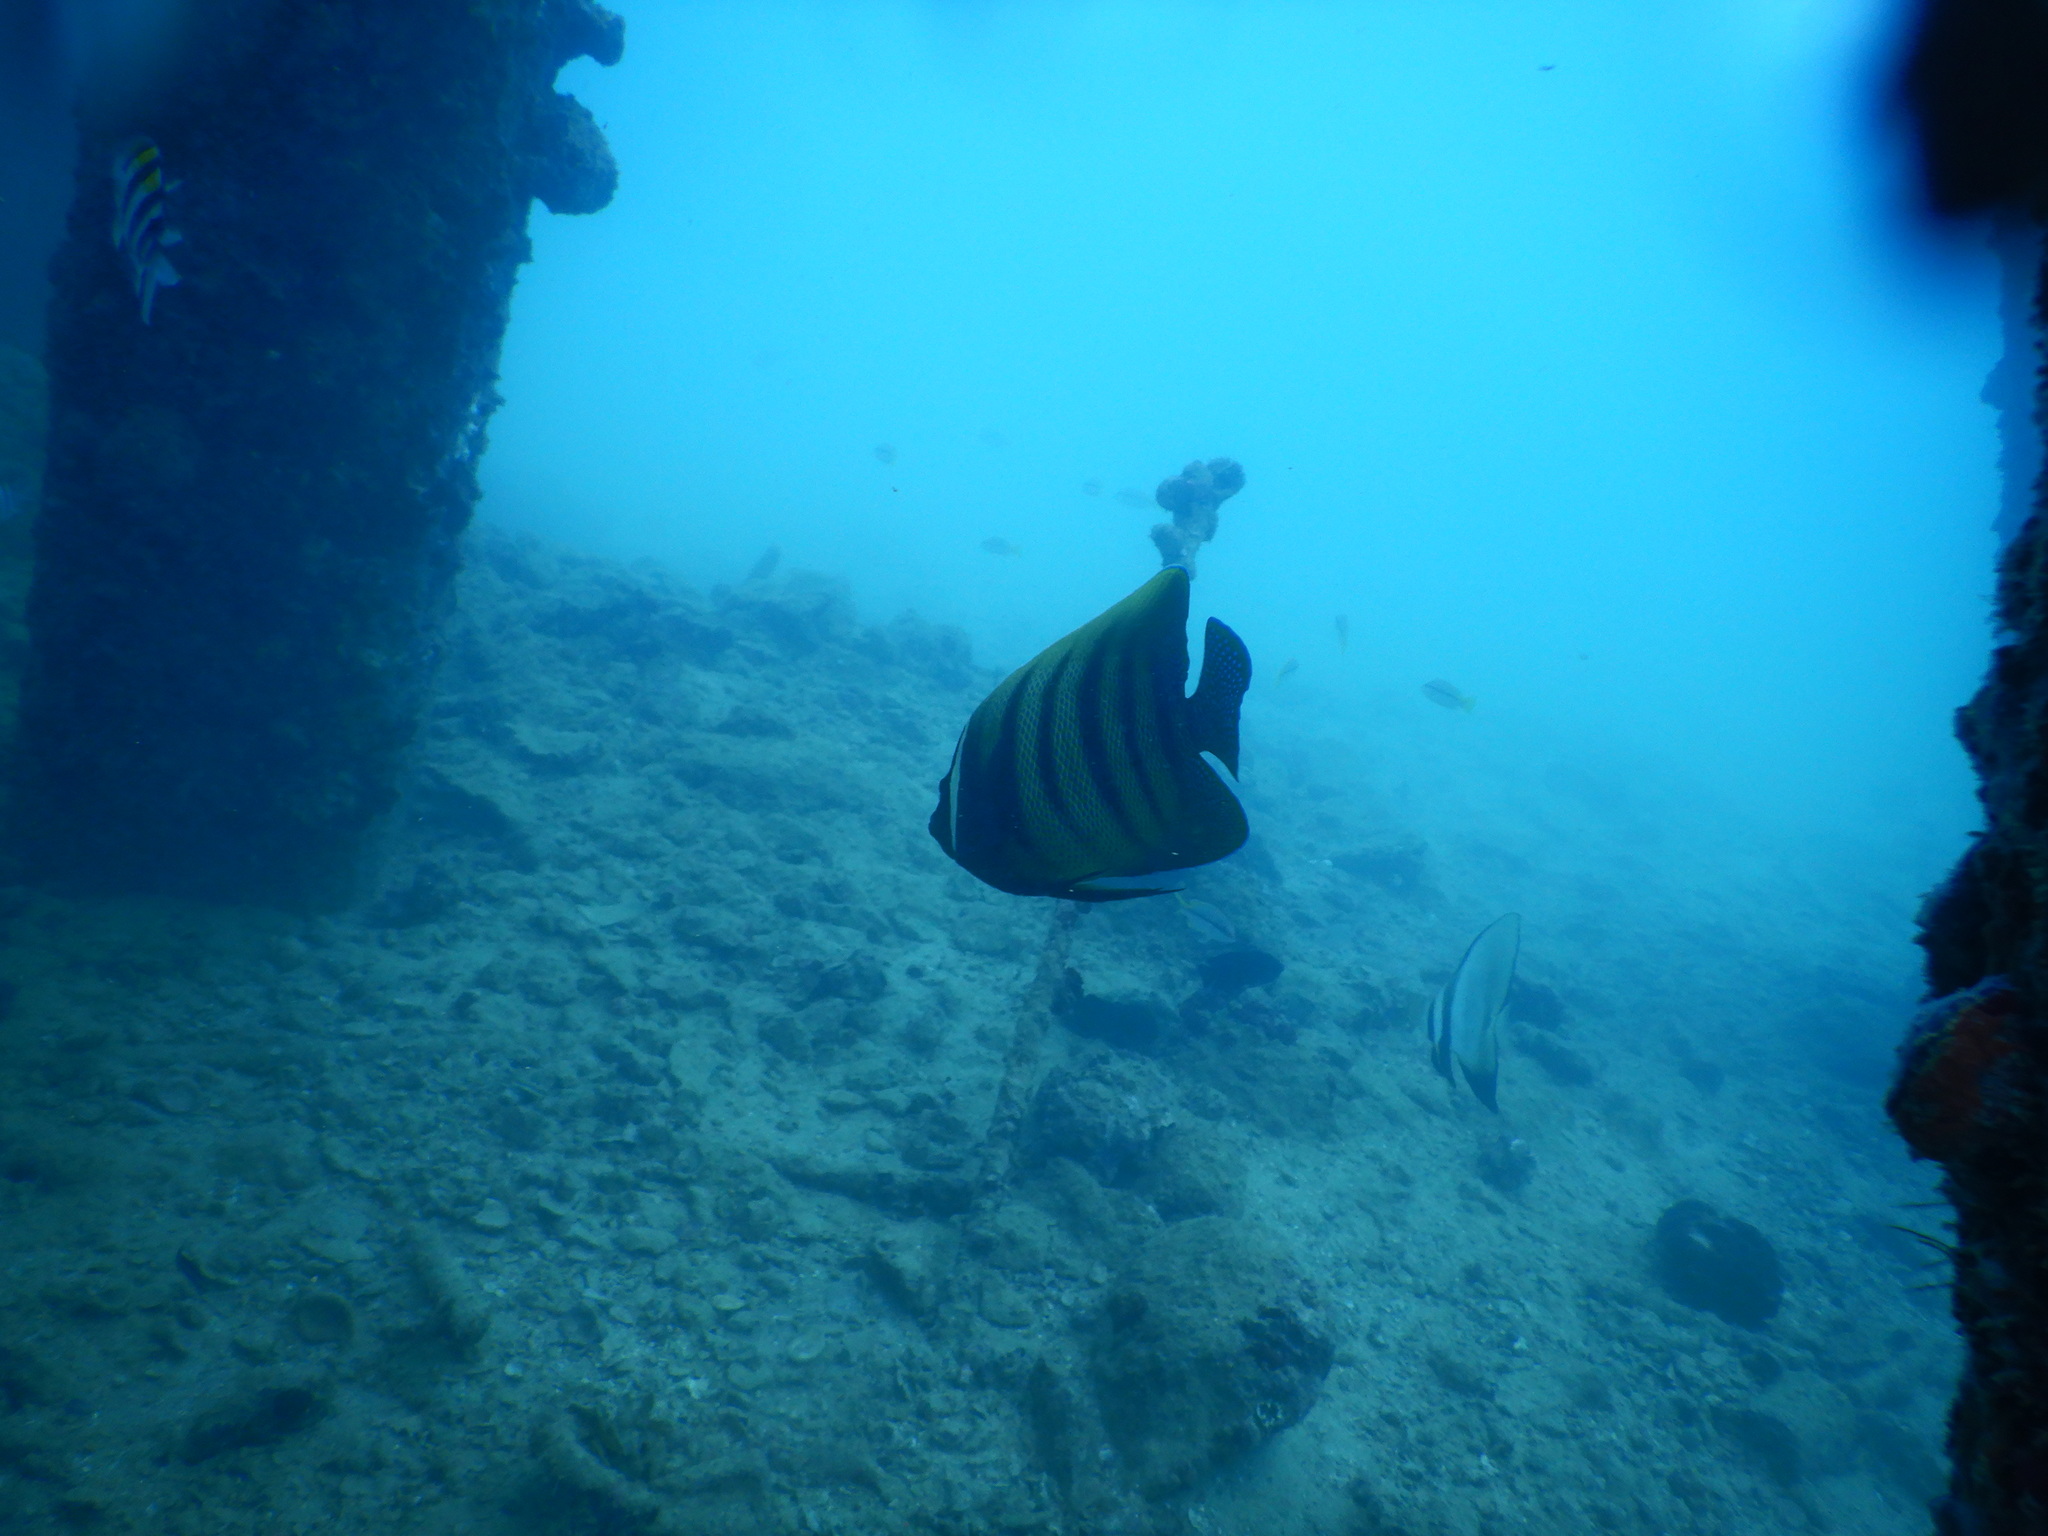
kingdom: Animalia
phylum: Chordata
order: Perciformes
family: Pomacanthidae
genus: Pomacanthus
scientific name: Pomacanthus sexstriatus
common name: Six-banded angelfish
